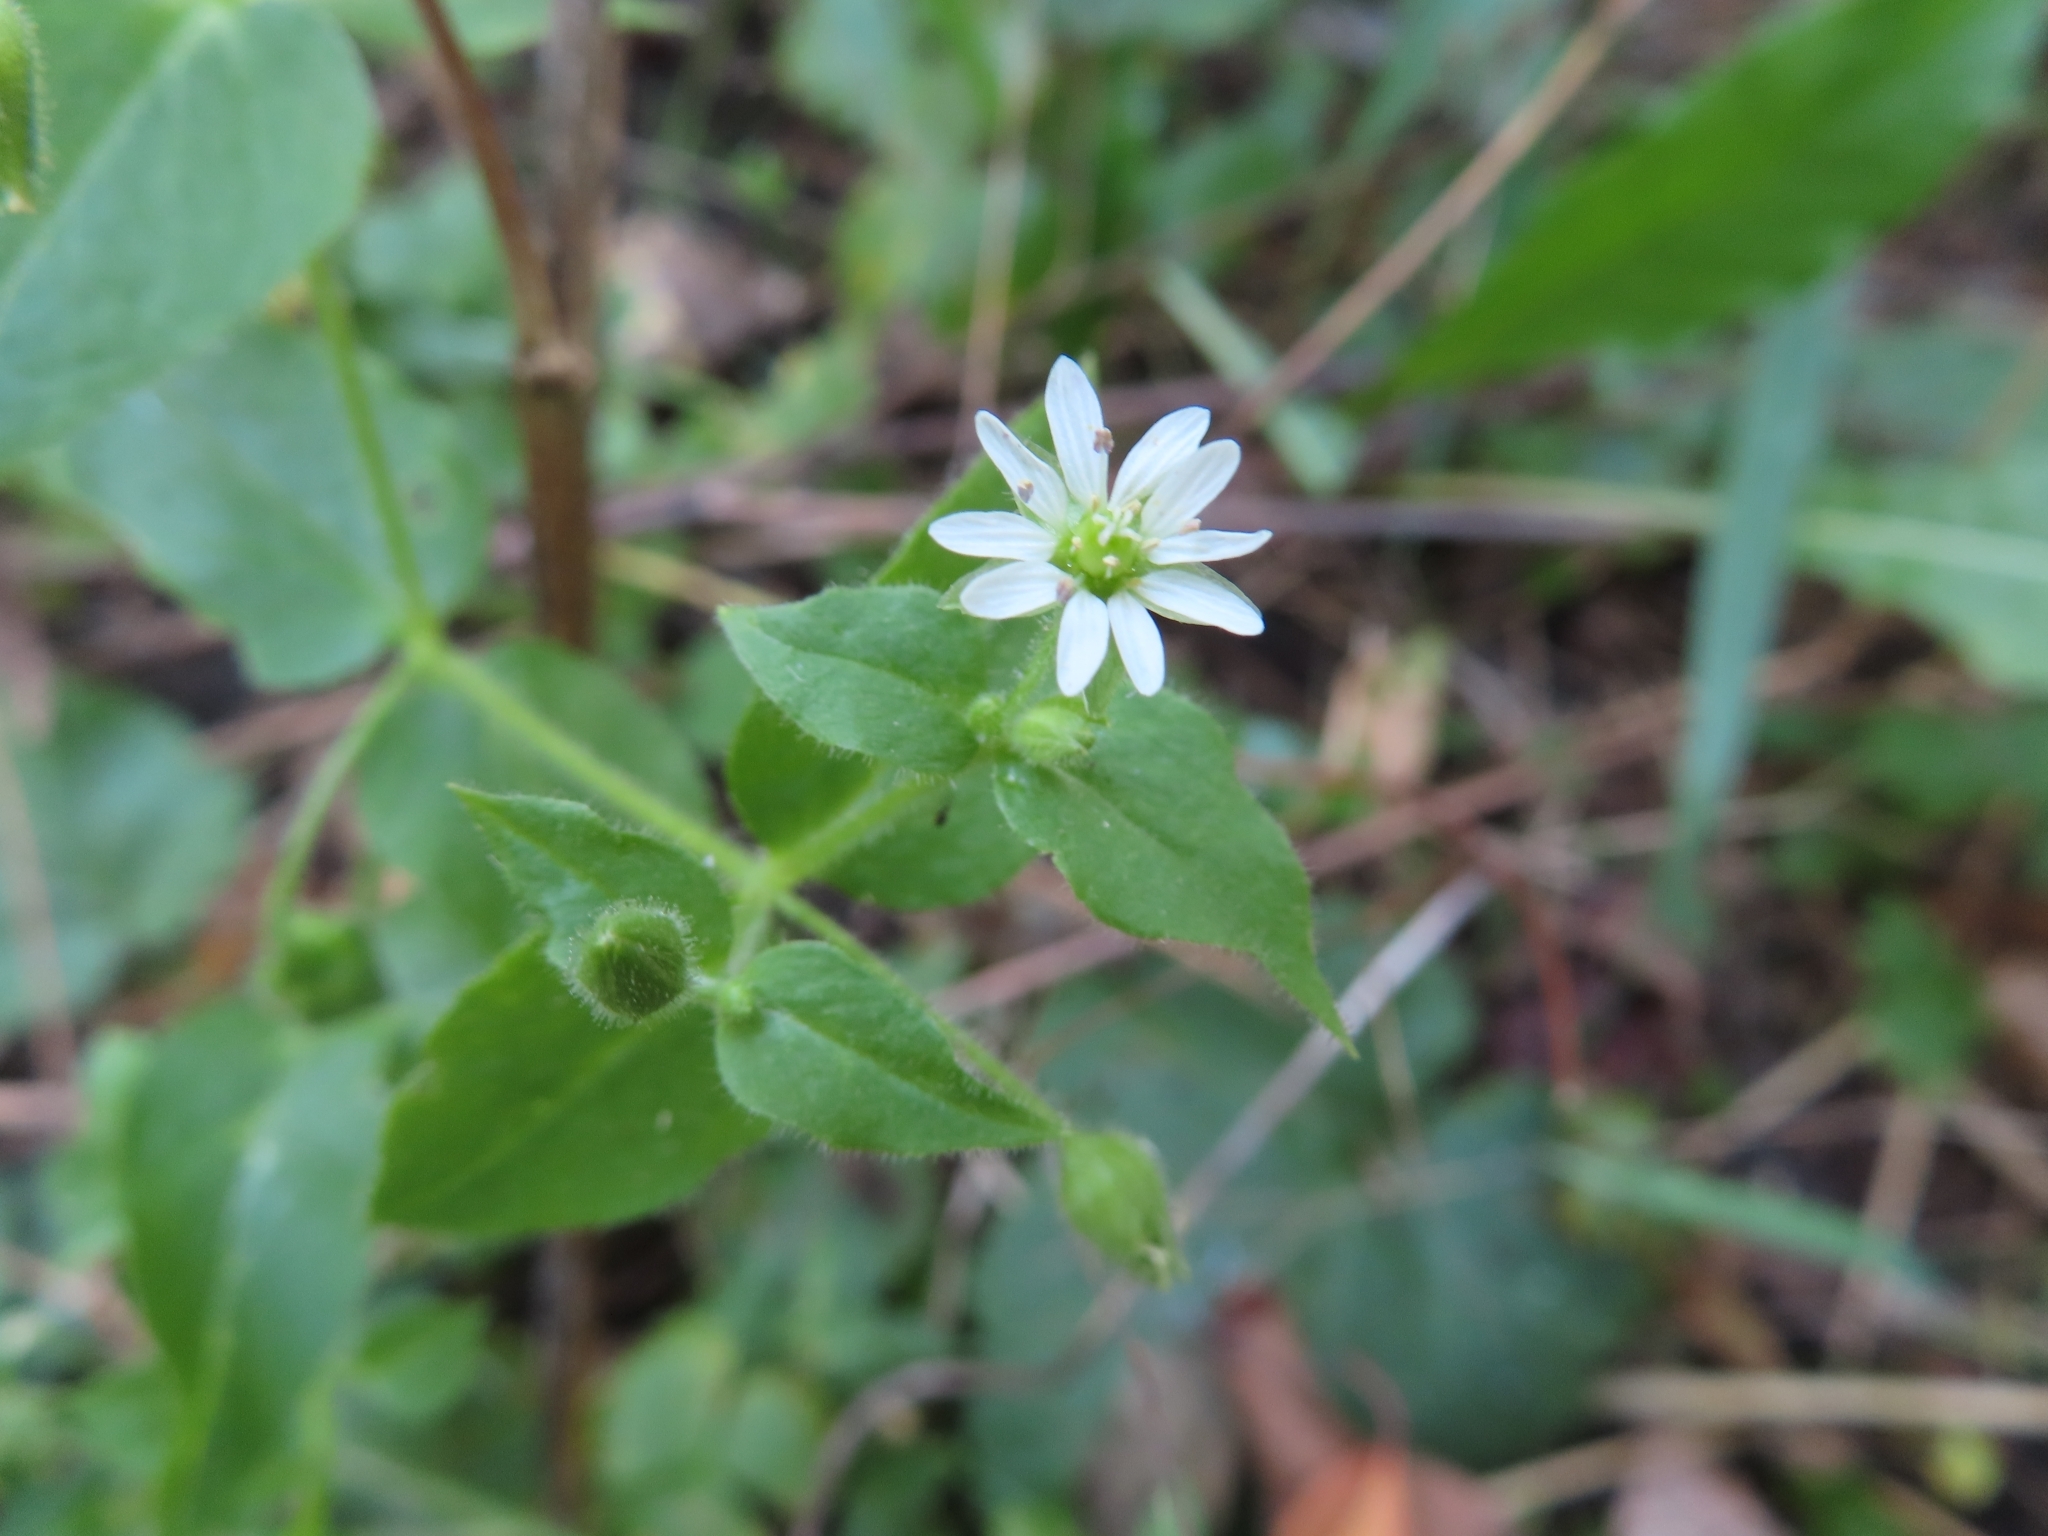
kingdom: Plantae
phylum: Tracheophyta
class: Magnoliopsida
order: Caryophyllales
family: Caryophyllaceae
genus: Stellaria
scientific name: Stellaria aquatica
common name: Water chickweed
